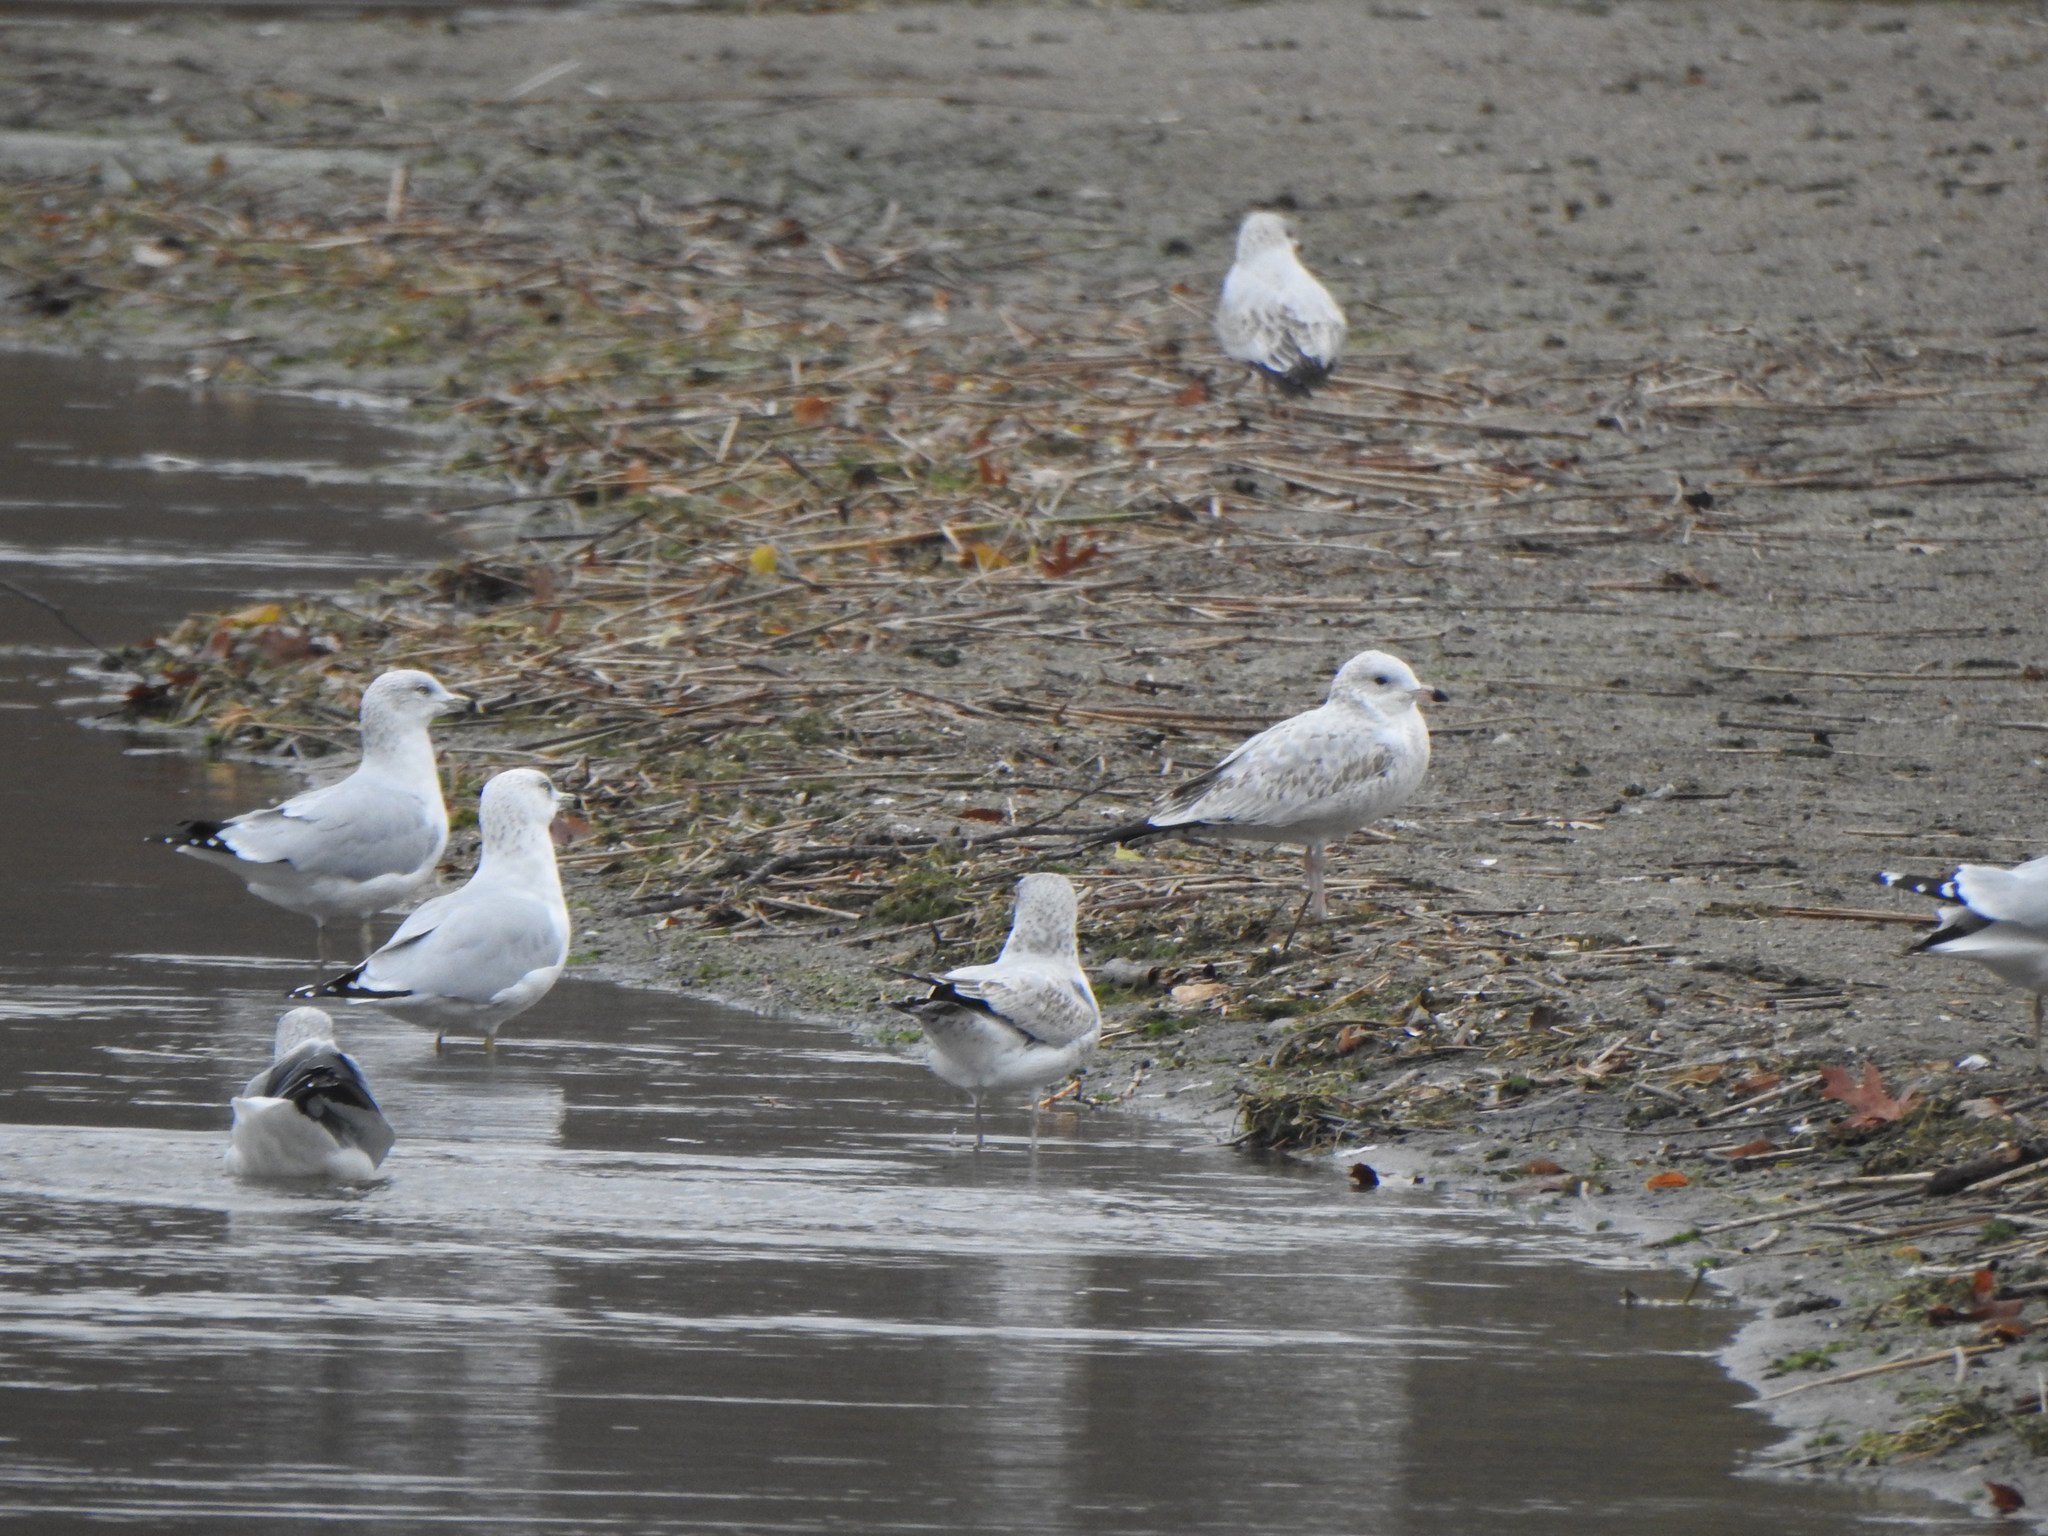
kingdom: Animalia
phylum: Chordata
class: Aves
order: Charadriiformes
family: Laridae
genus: Larus
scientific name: Larus delawarensis
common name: Ring-billed gull
